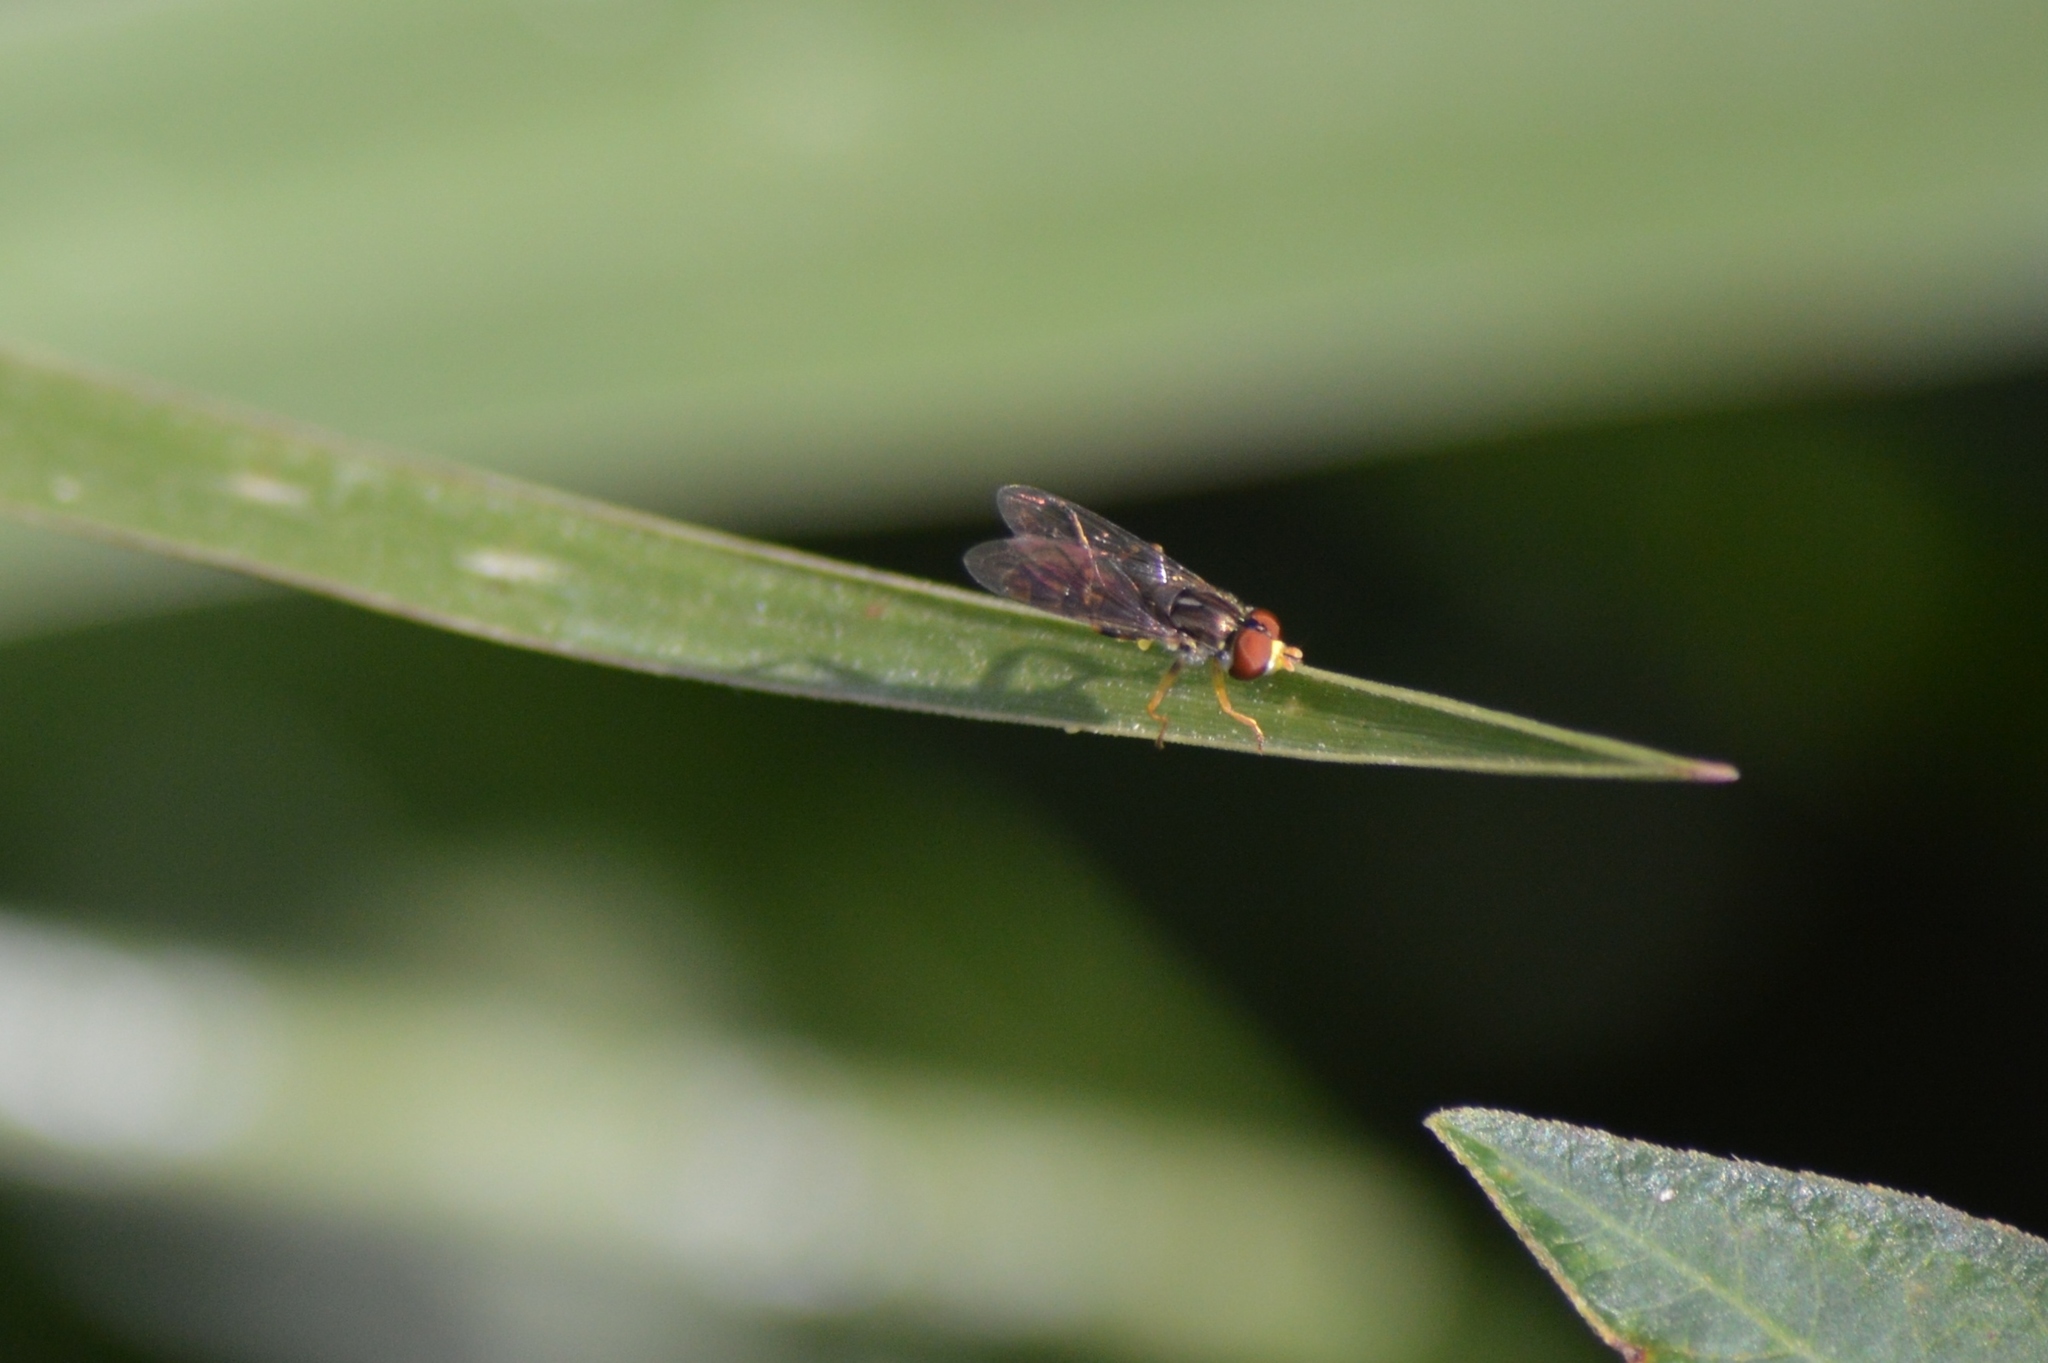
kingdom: Animalia
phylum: Arthropoda
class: Insecta
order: Diptera
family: Syrphidae
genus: Toxomerus
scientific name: Toxomerus
